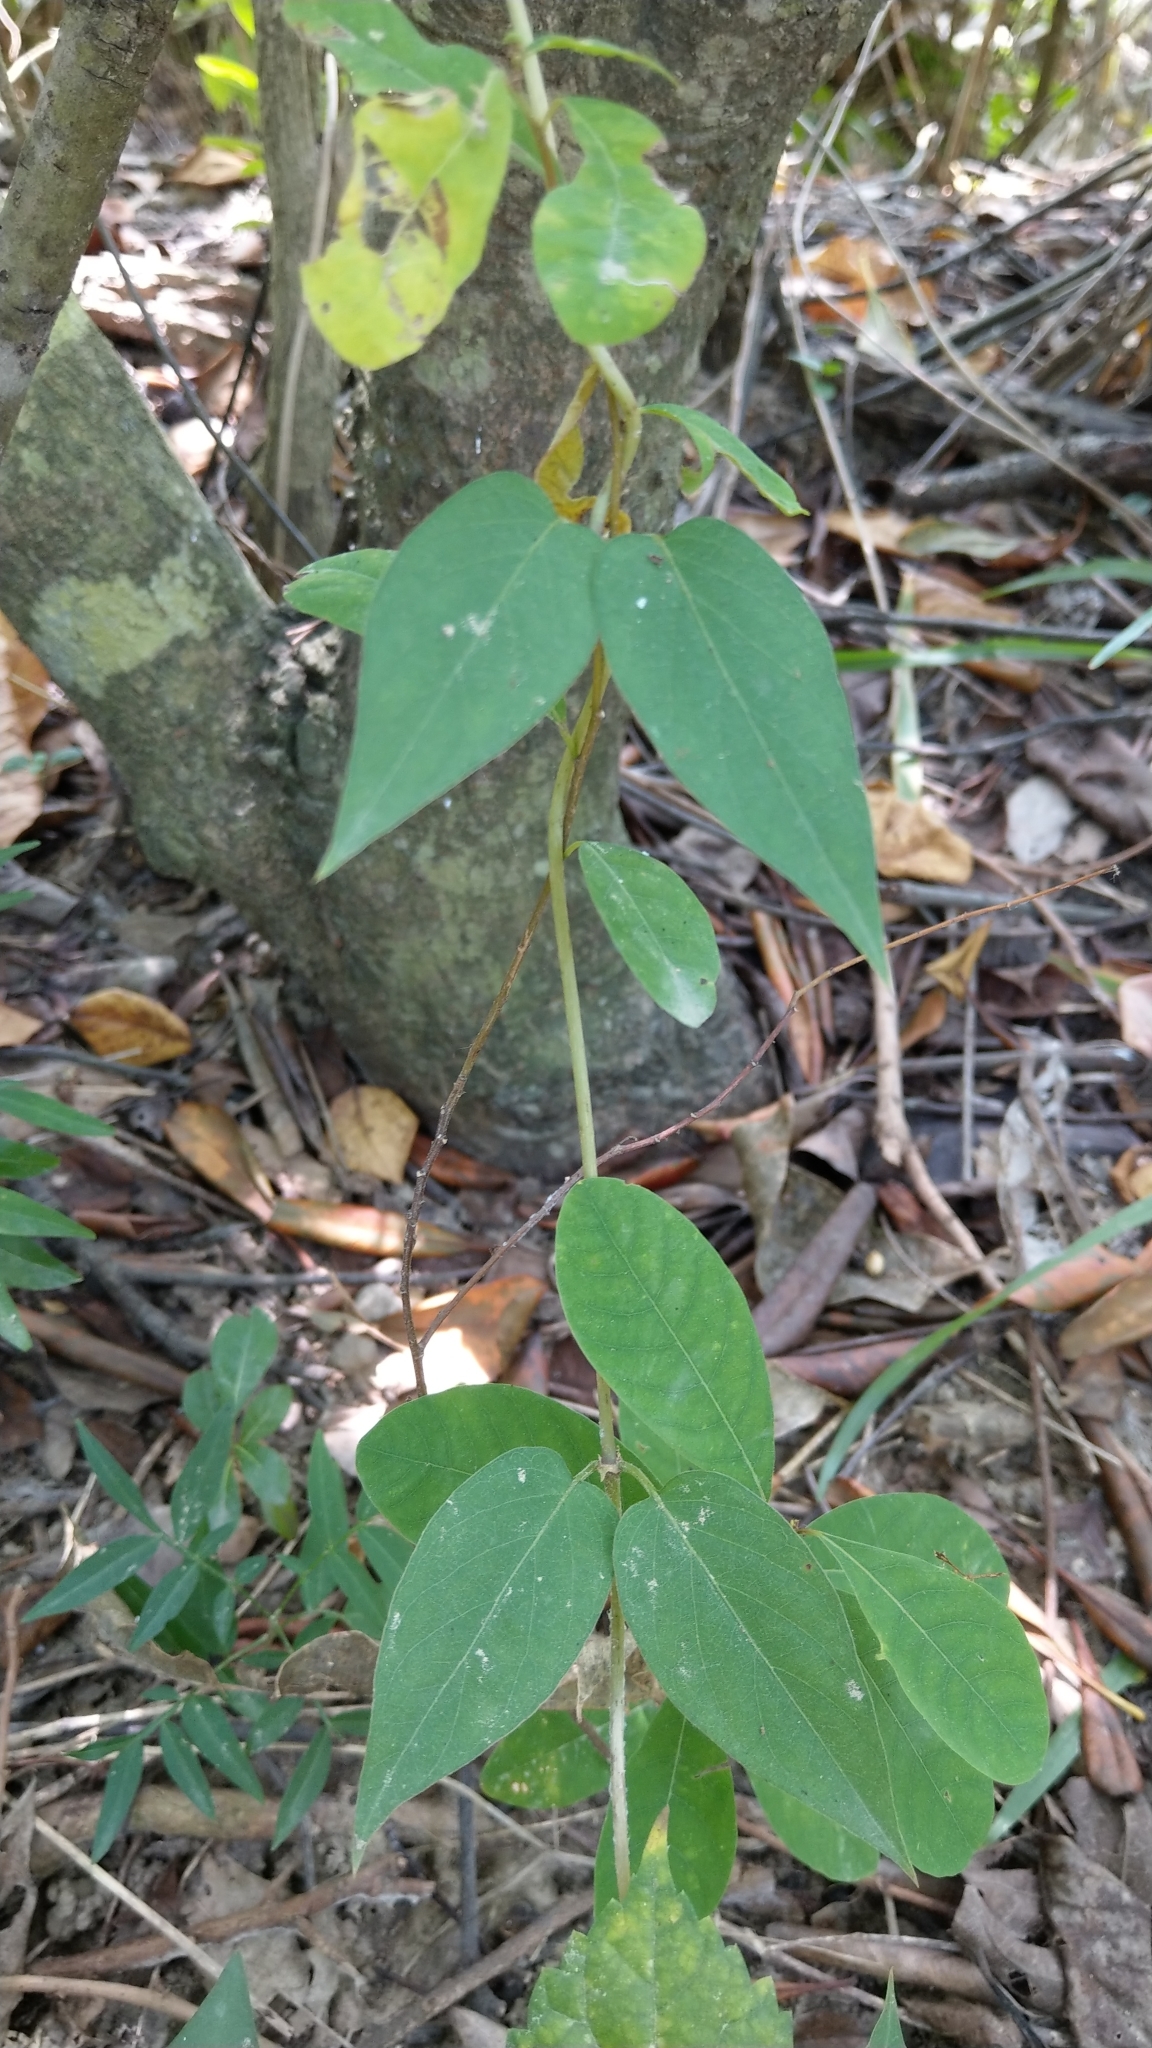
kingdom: Plantae
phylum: Tracheophyta
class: Magnoliopsida
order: Gentianales
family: Rubiaceae
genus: Paederia
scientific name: Paederia foetida
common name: Stinkvine
